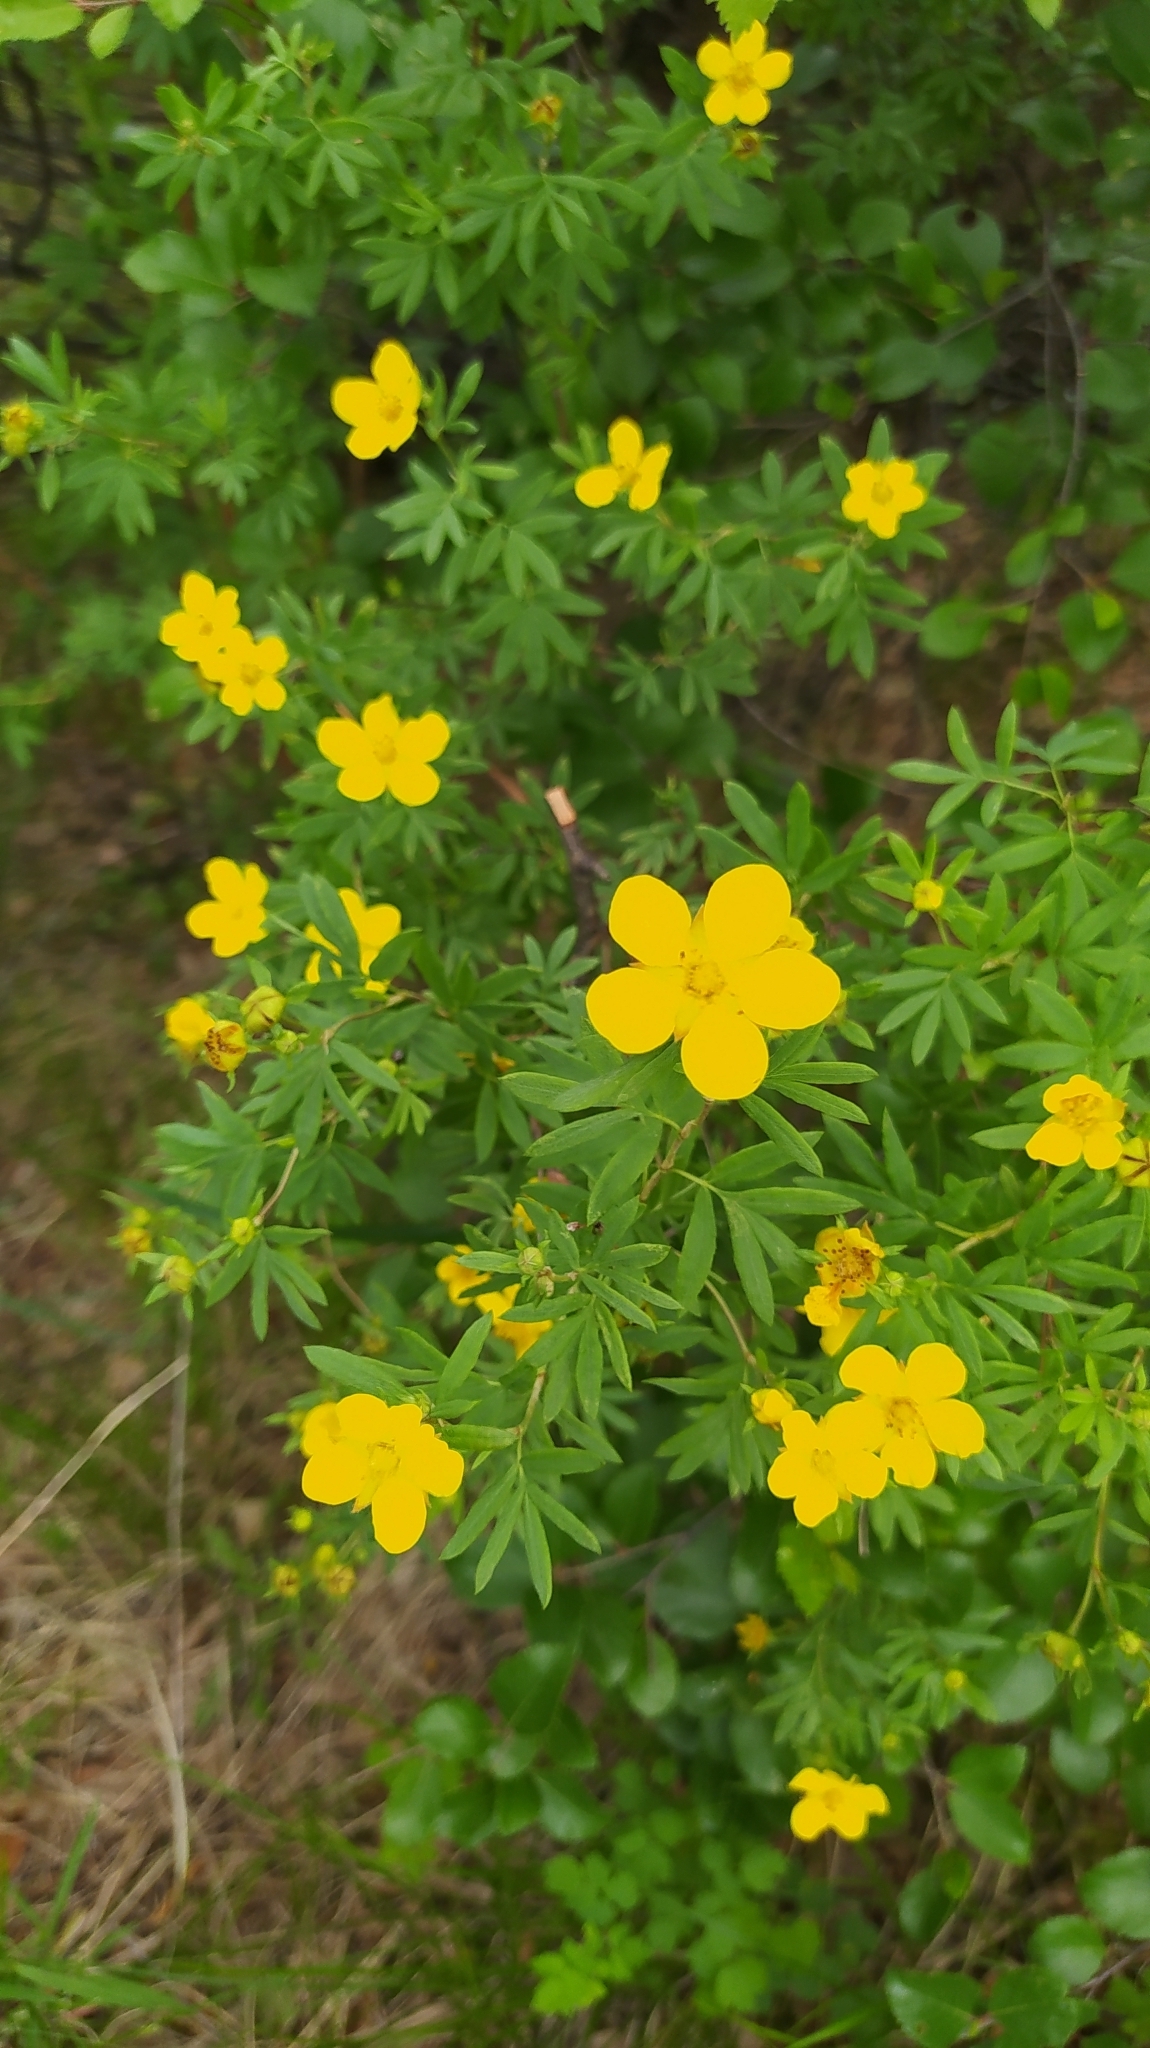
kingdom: Plantae
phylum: Tracheophyta
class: Magnoliopsida
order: Rosales
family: Rosaceae
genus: Dasiphora
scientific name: Dasiphora fruticosa
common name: Shrubby cinquefoil
